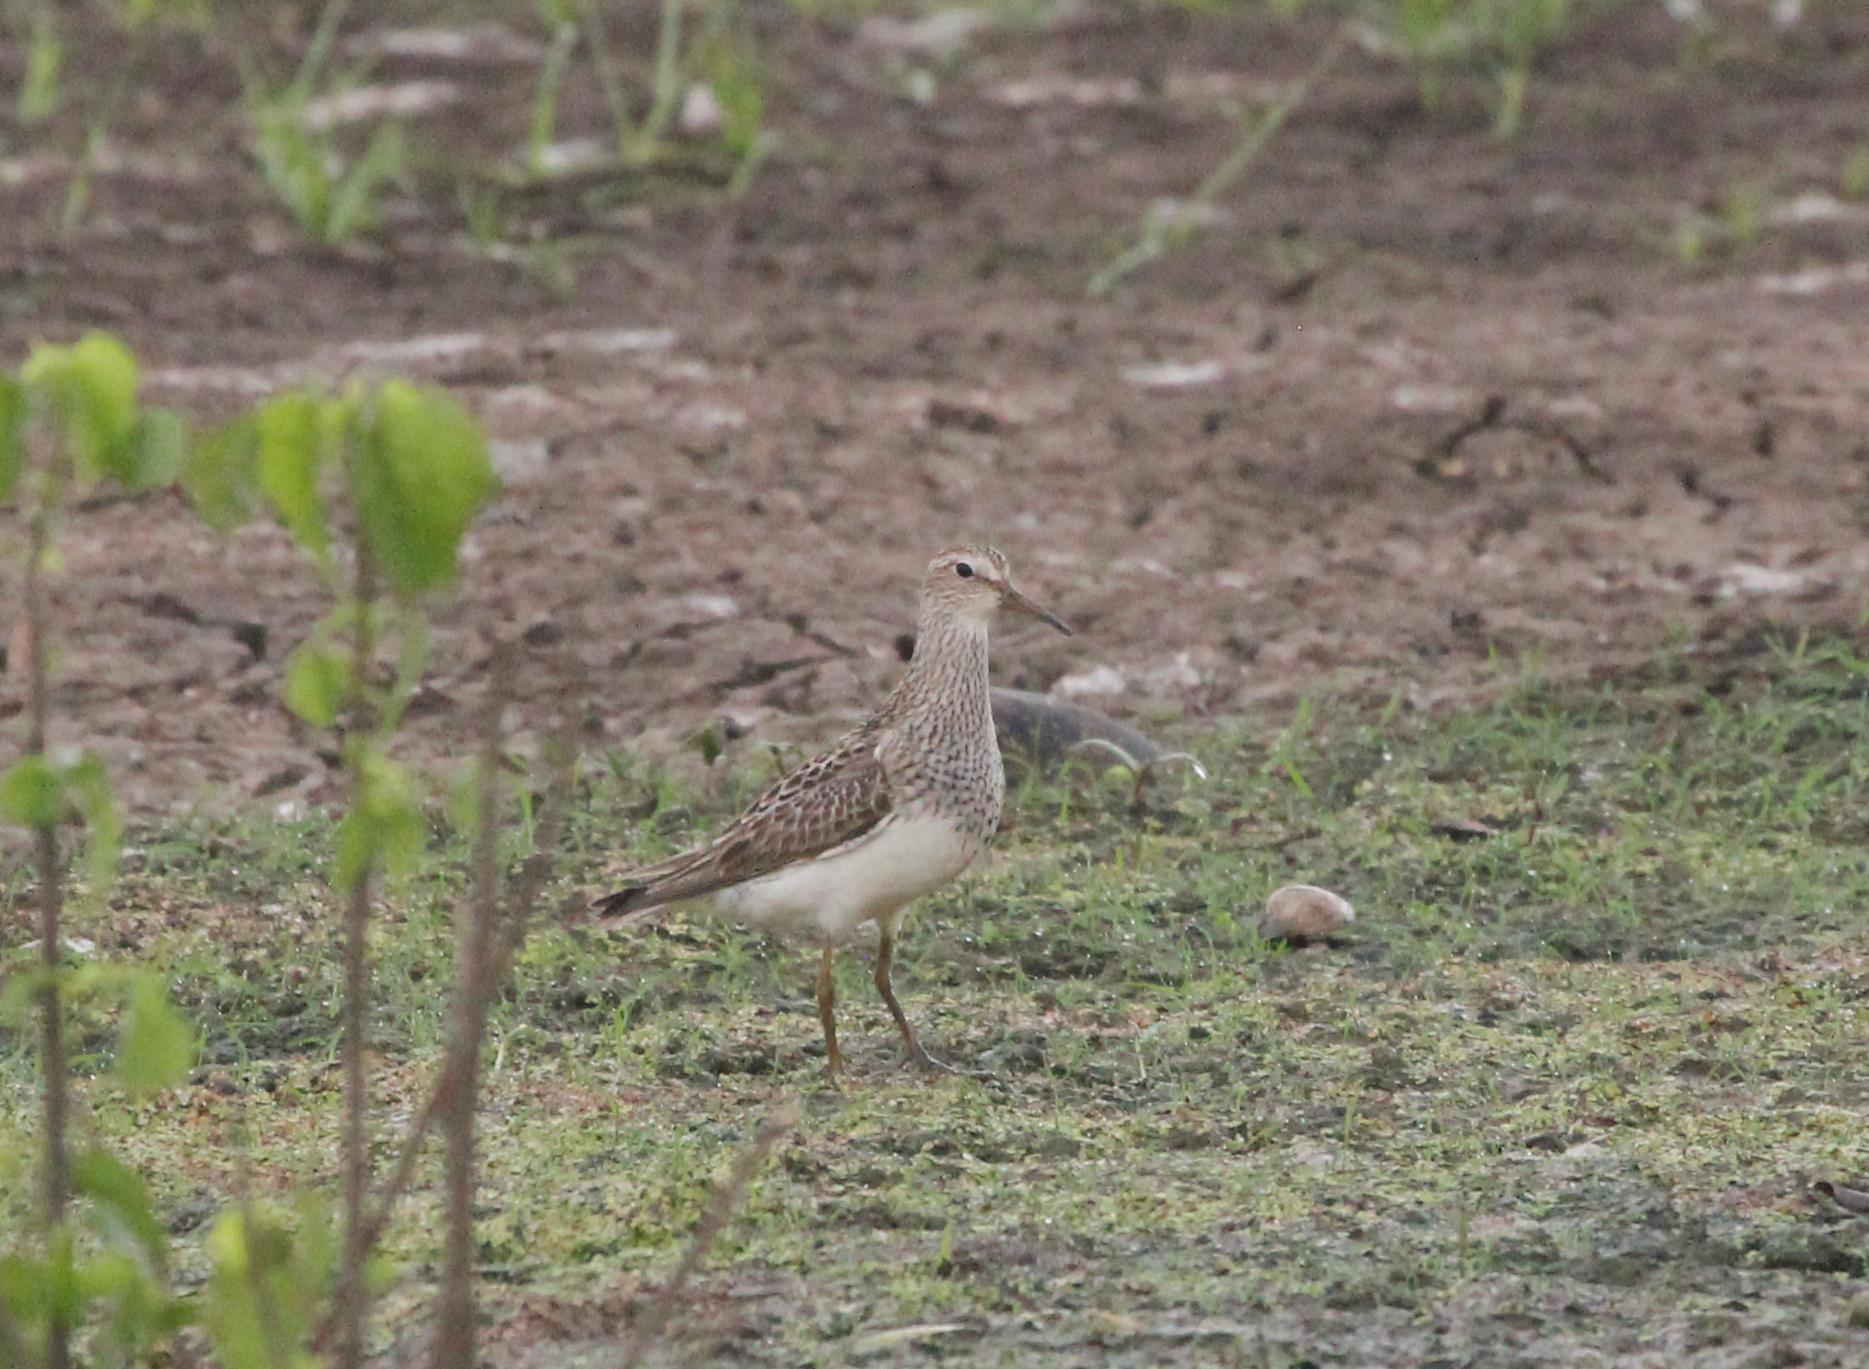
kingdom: Animalia
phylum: Chordata
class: Aves
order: Charadriiformes
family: Scolopacidae
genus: Calidris
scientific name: Calidris melanotos
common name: Pectoral sandpiper
